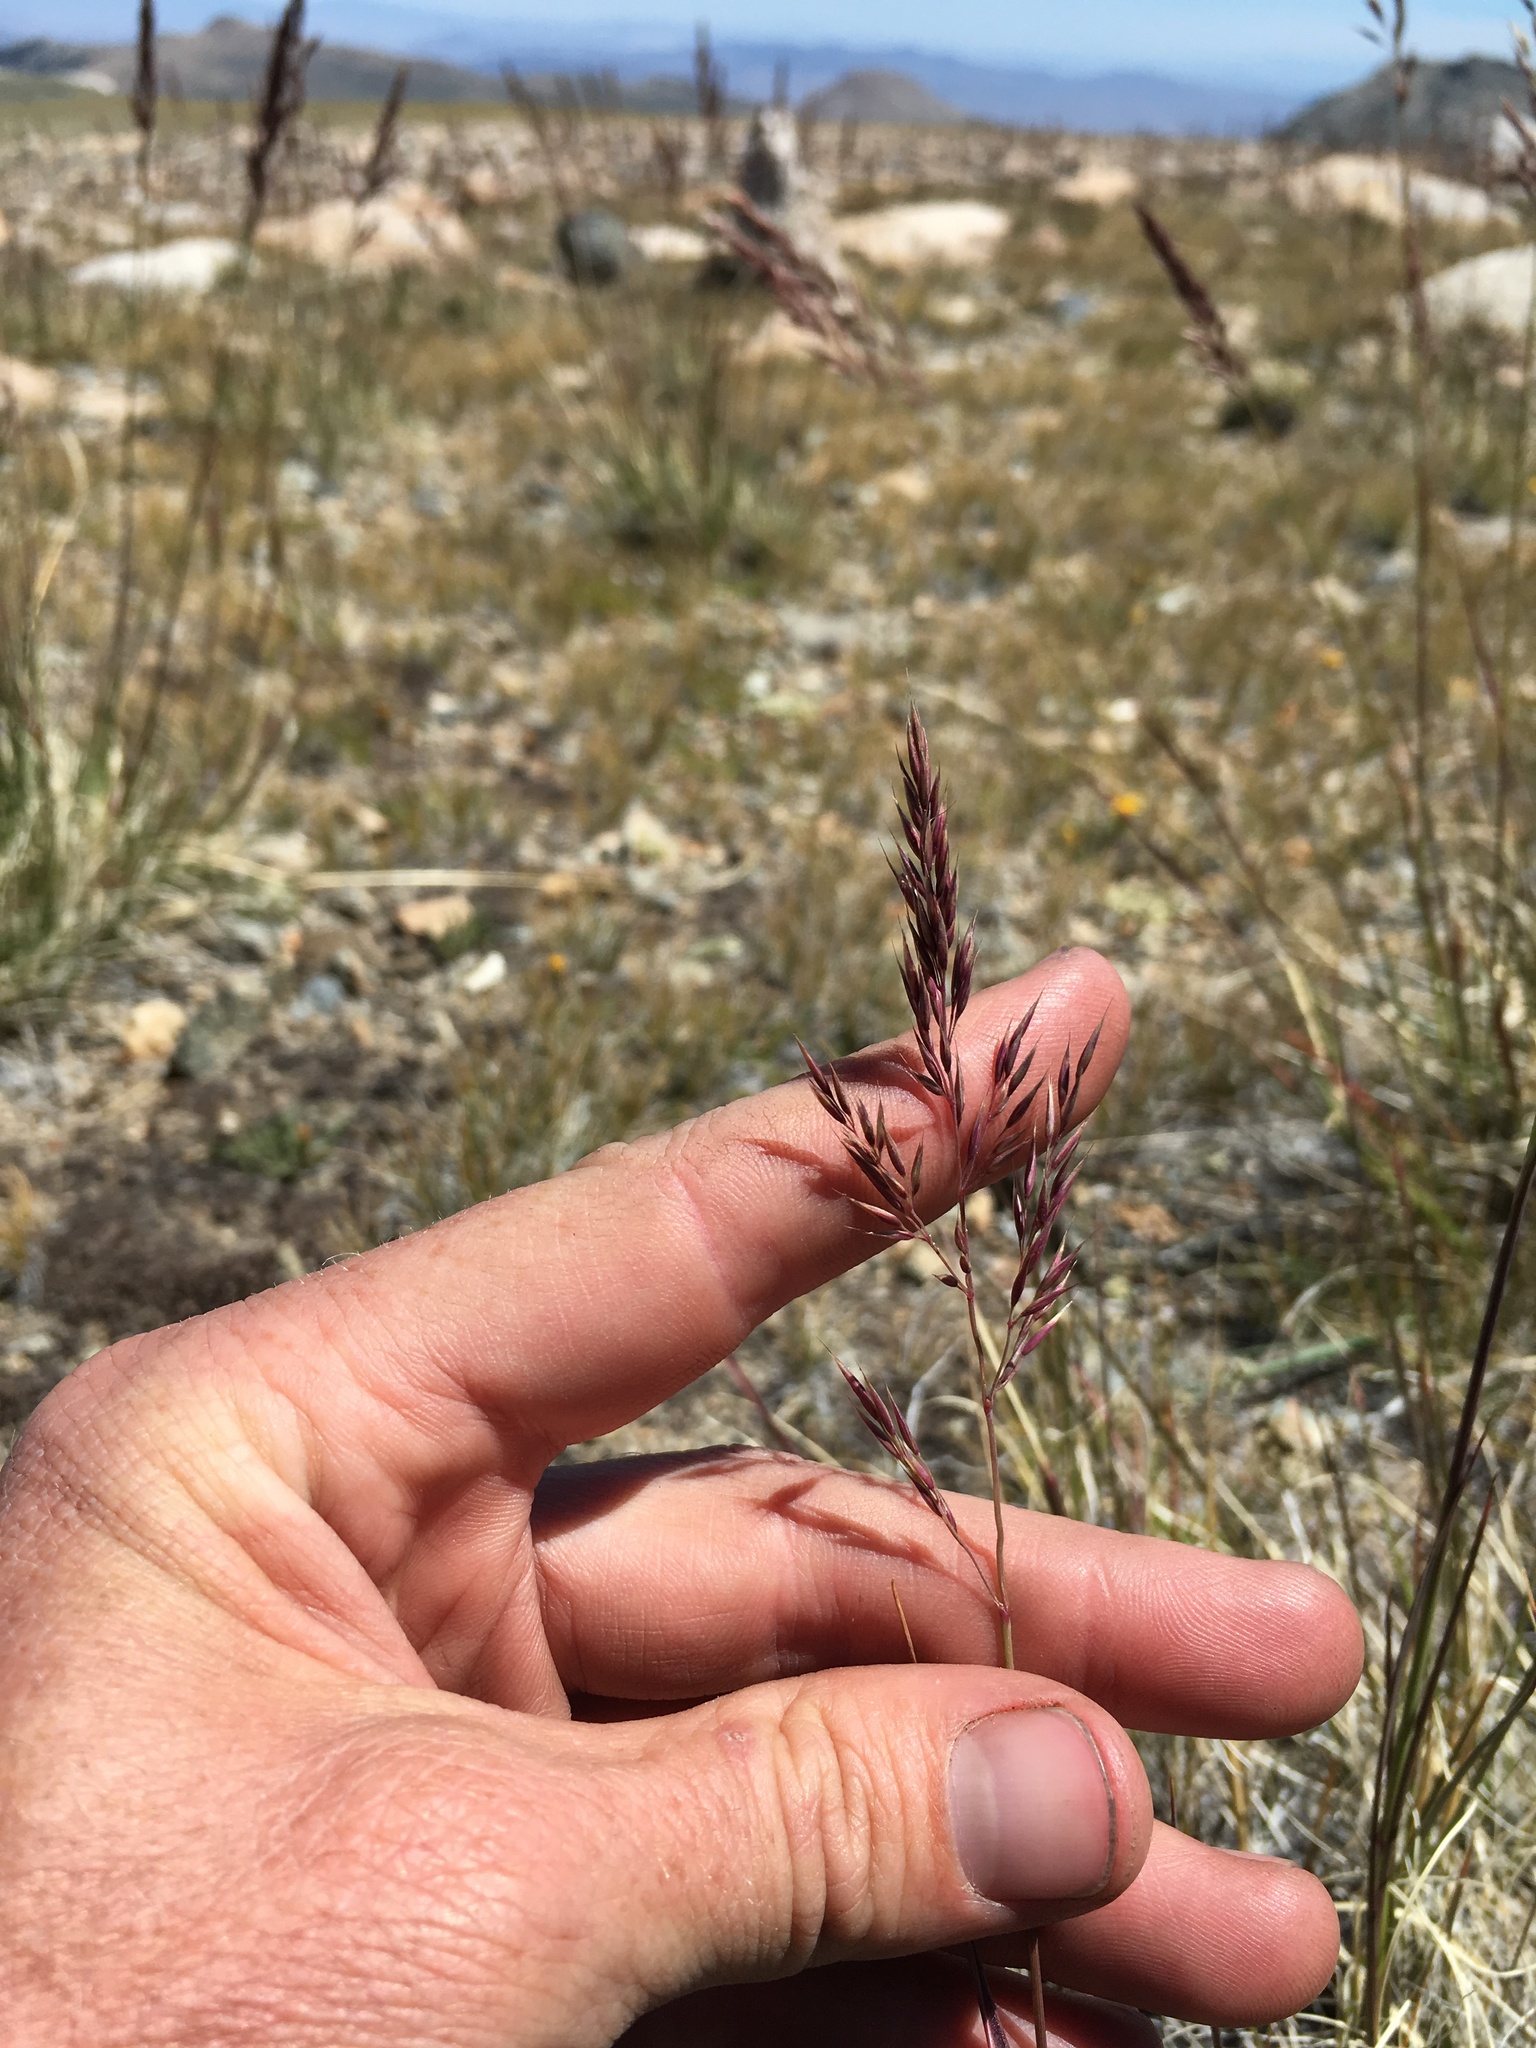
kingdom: Plantae
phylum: Tracheophyta
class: Liliopsida
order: Poales
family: Poaceae
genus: Calamagrostis
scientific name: Calamagrostis purpurascens
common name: Purple reedgrass
